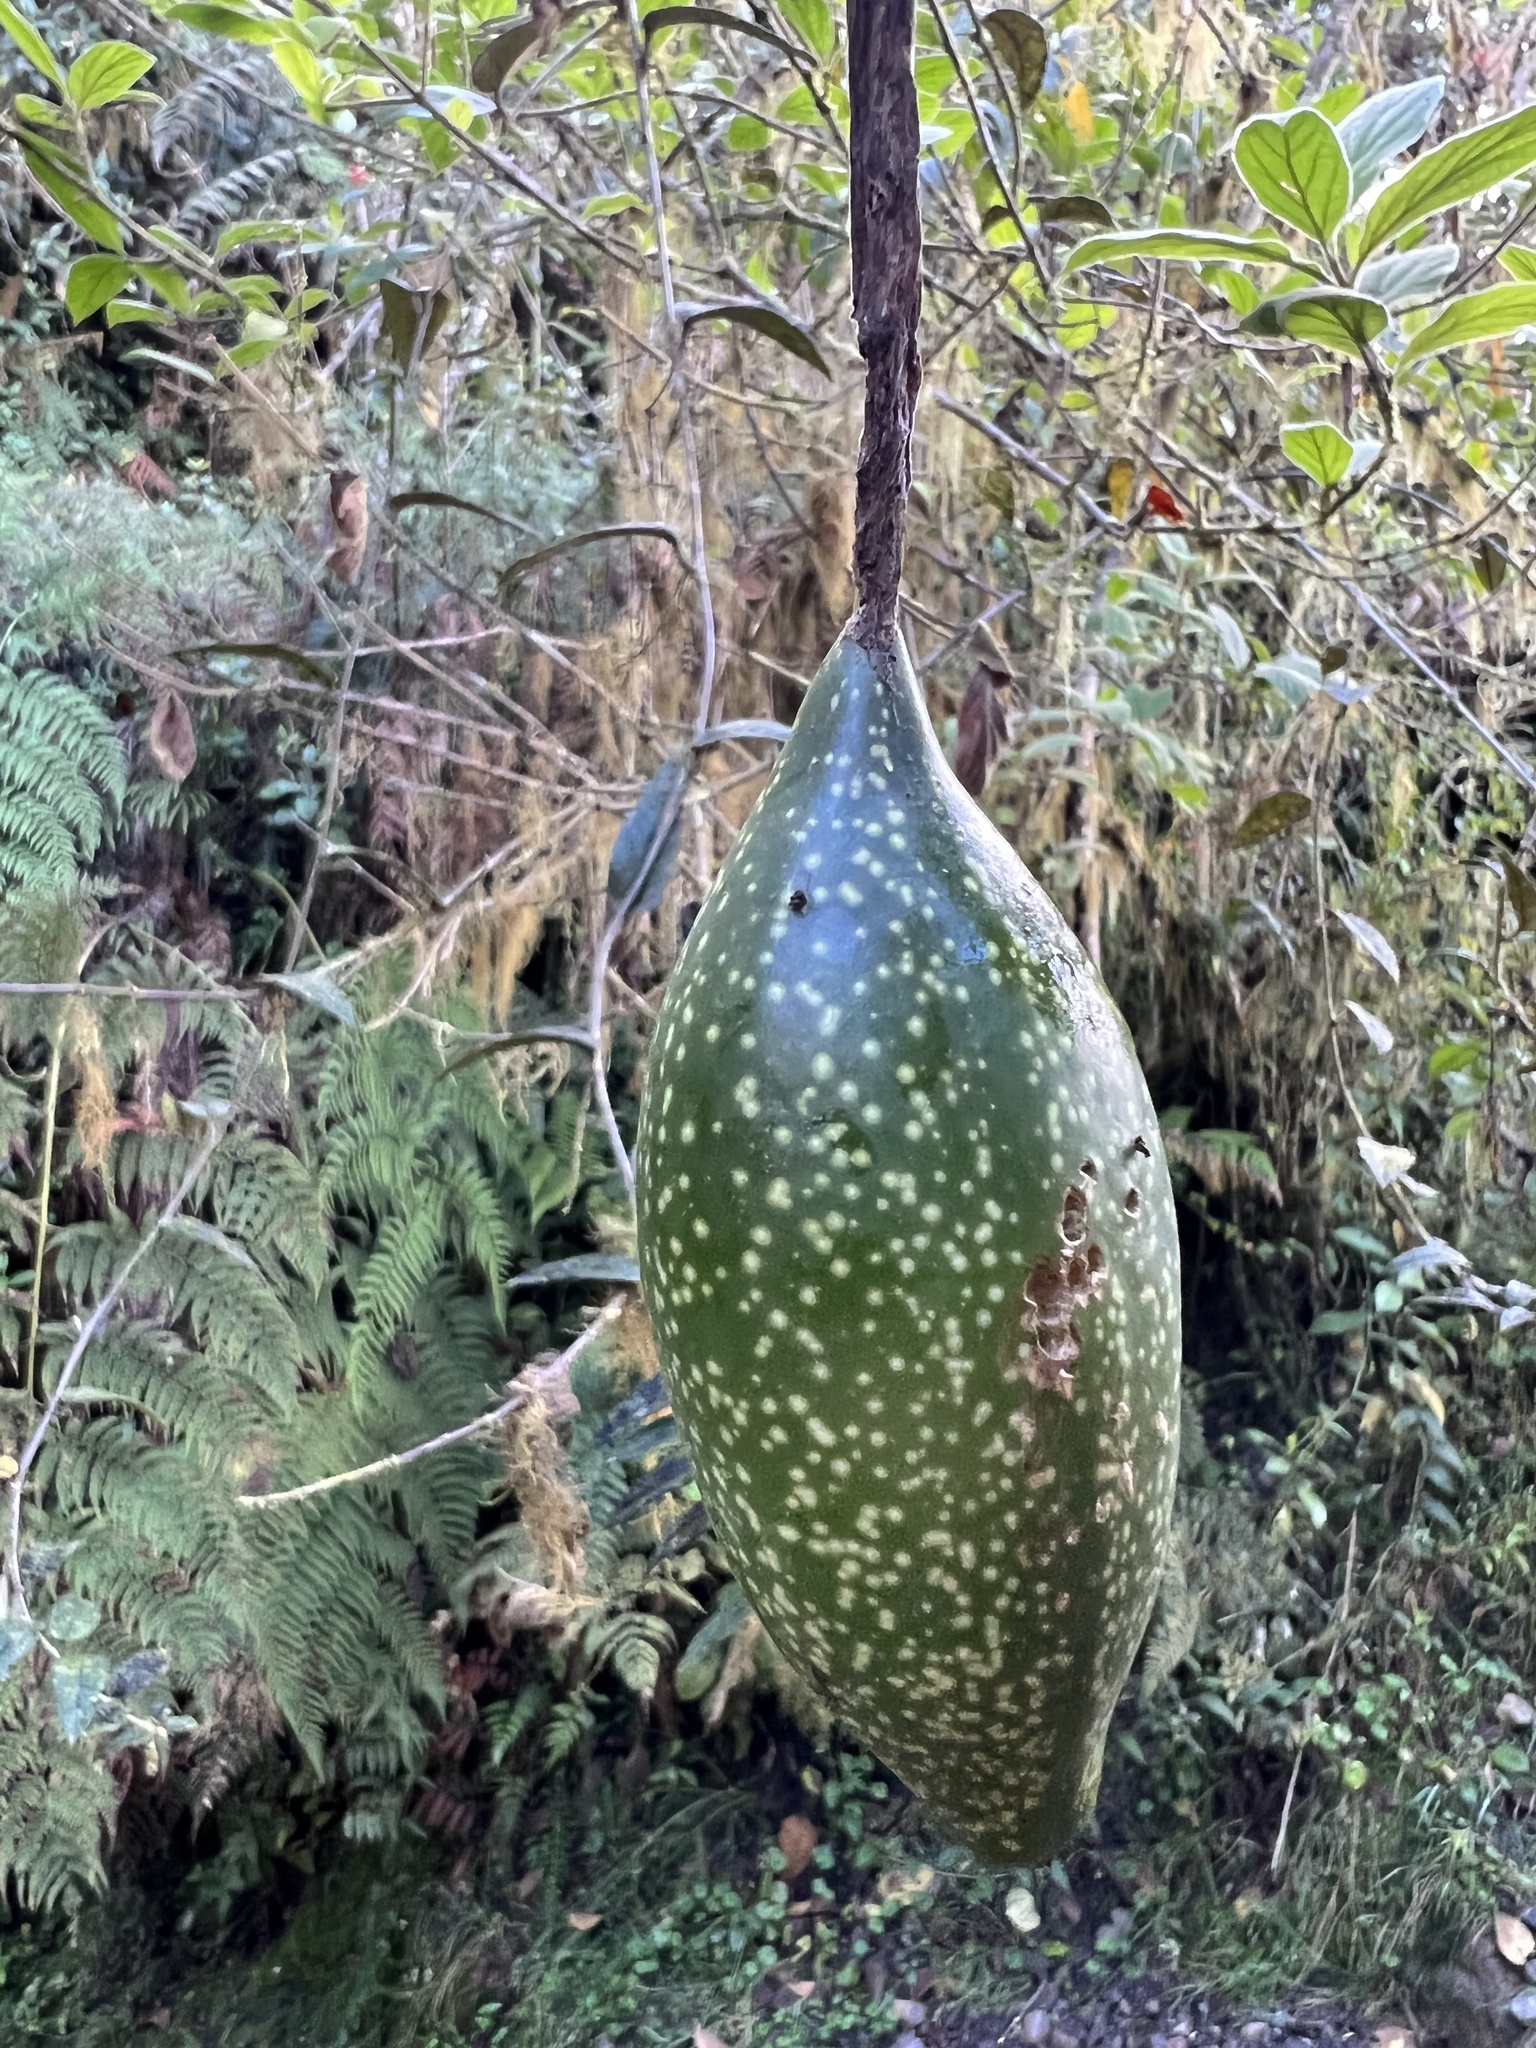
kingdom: Plantae
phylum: Tracheophyta
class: Magnoliopsida
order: Malpighiales
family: Passifloraceae
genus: Passiflora
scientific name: Passiflora lanata
